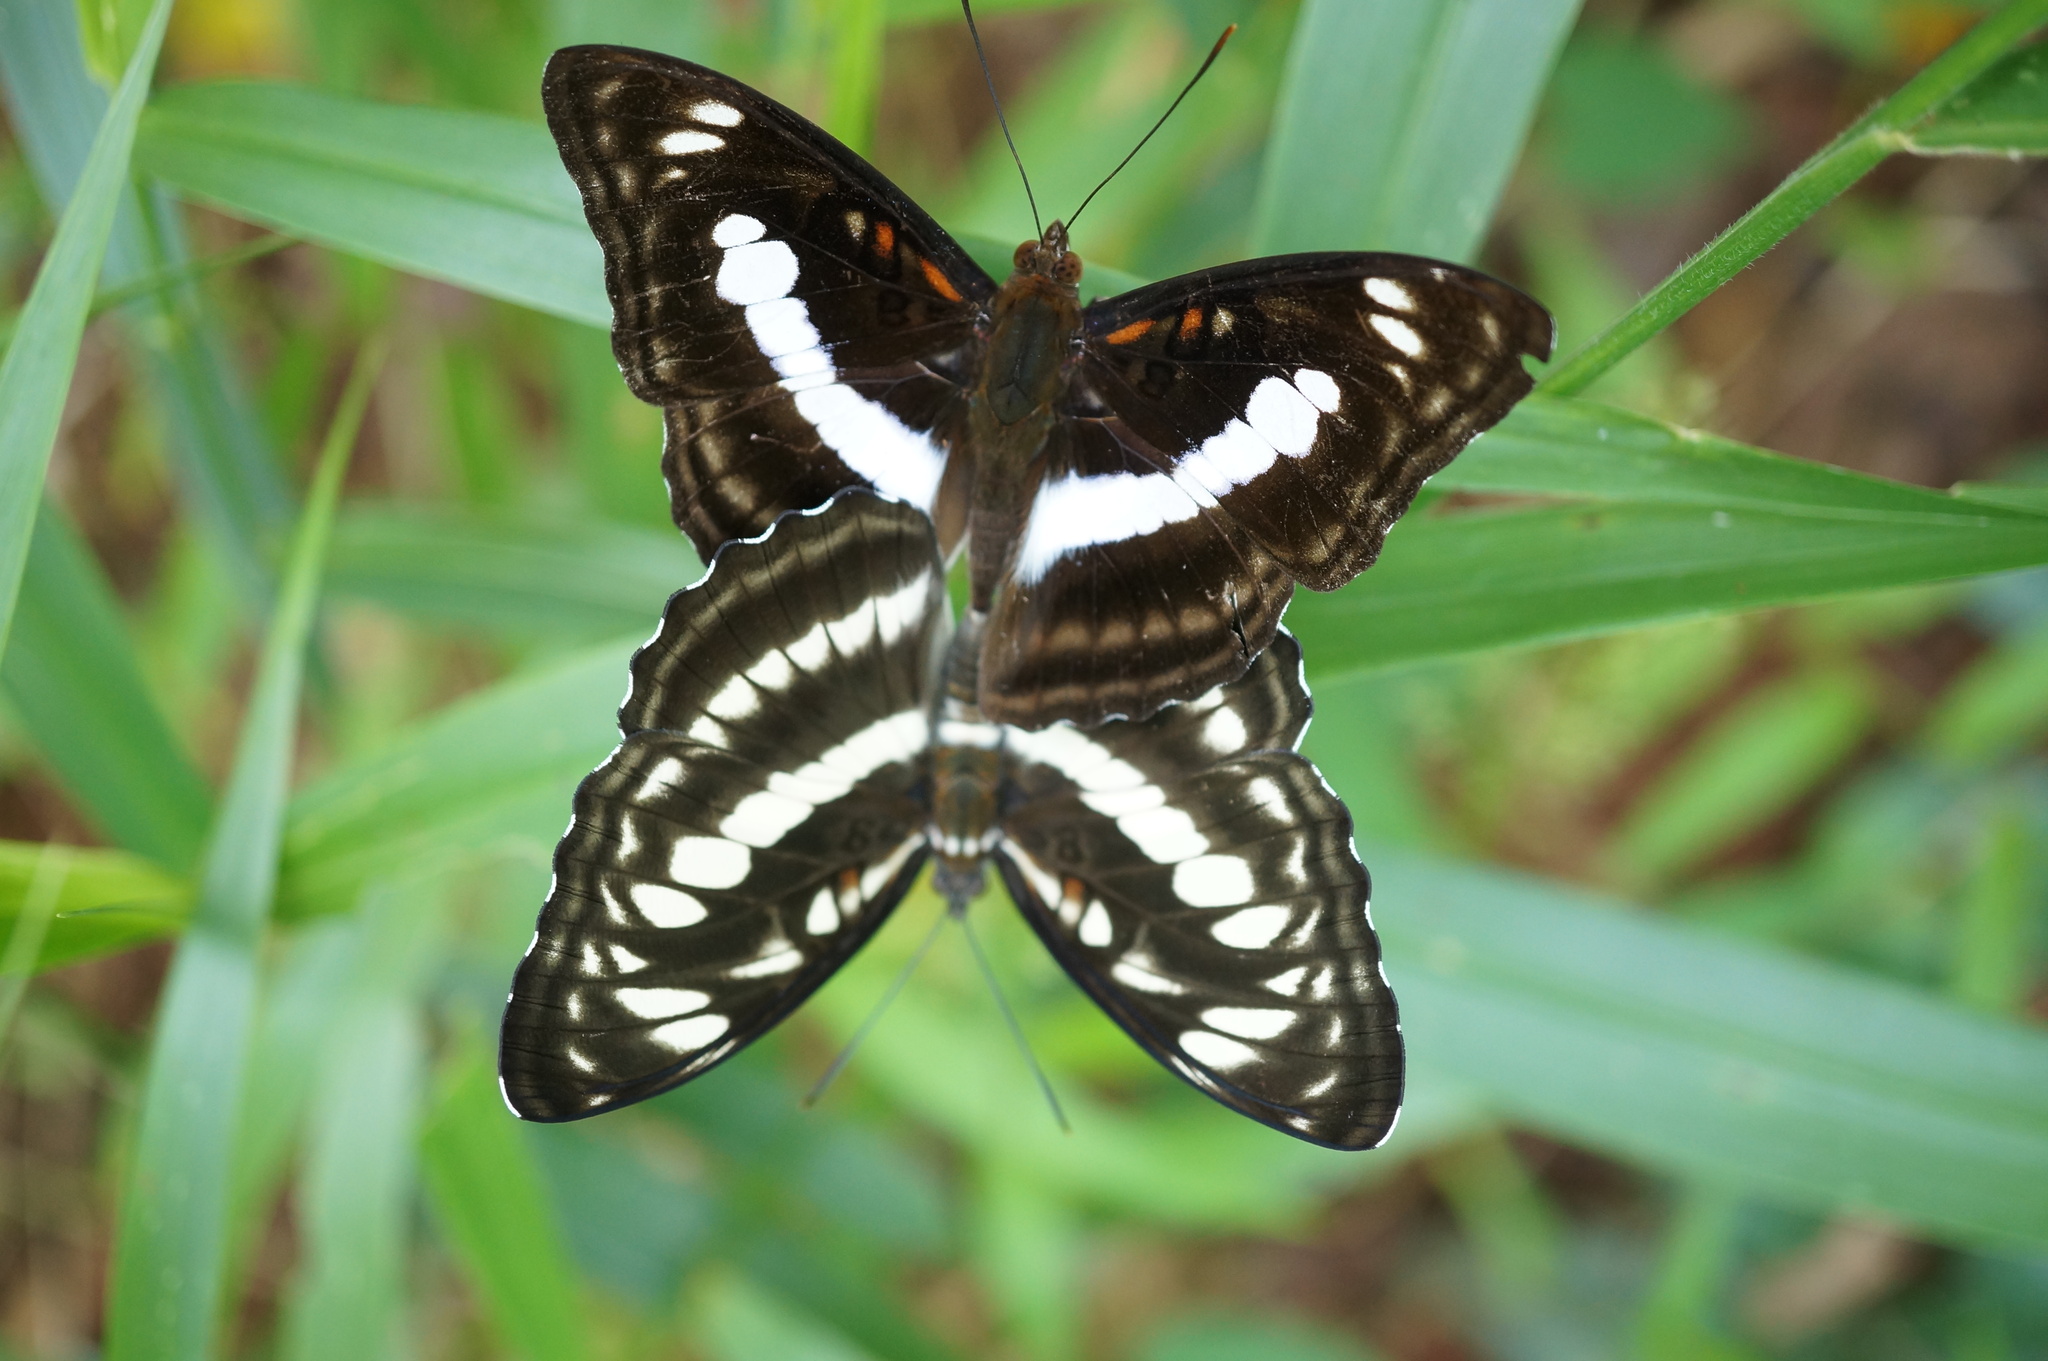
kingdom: Animalia
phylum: Arthropoda
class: Insecta
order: Lepidoptera
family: Nymphalidae
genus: Parathyma
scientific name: Parathyma selenophora
